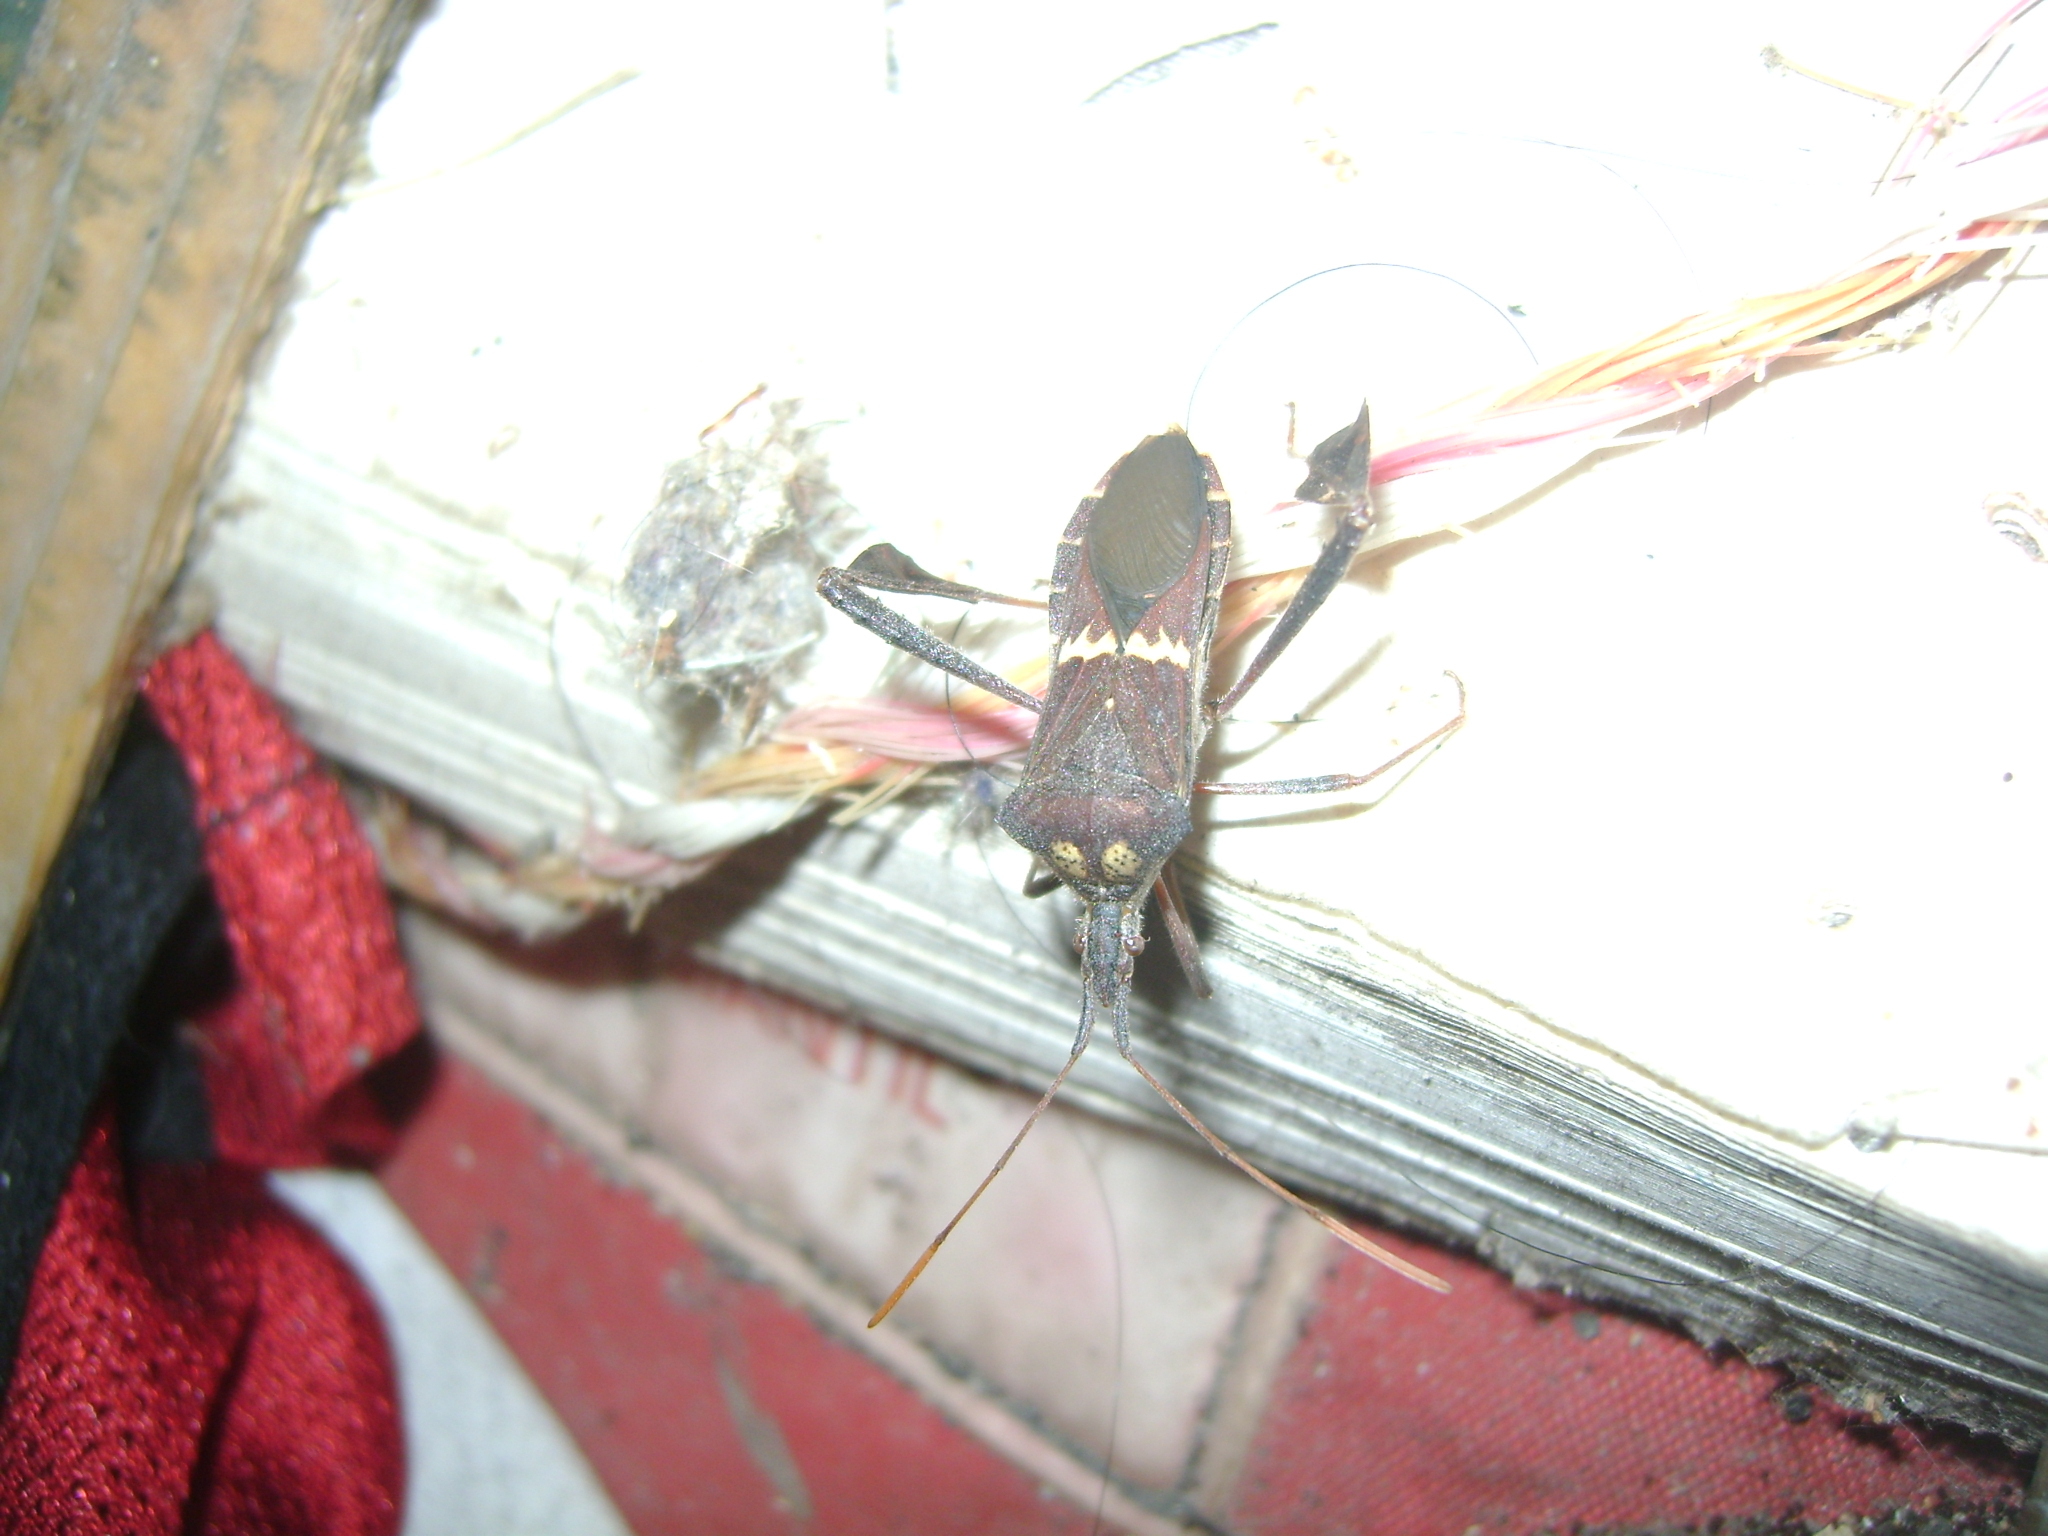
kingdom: Animalia
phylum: Arthropoda
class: Insecta
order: Hemiptera
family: Coreidae
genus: Leptoglossus
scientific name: Leptoglossus zonatus
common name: Large-legged bug
